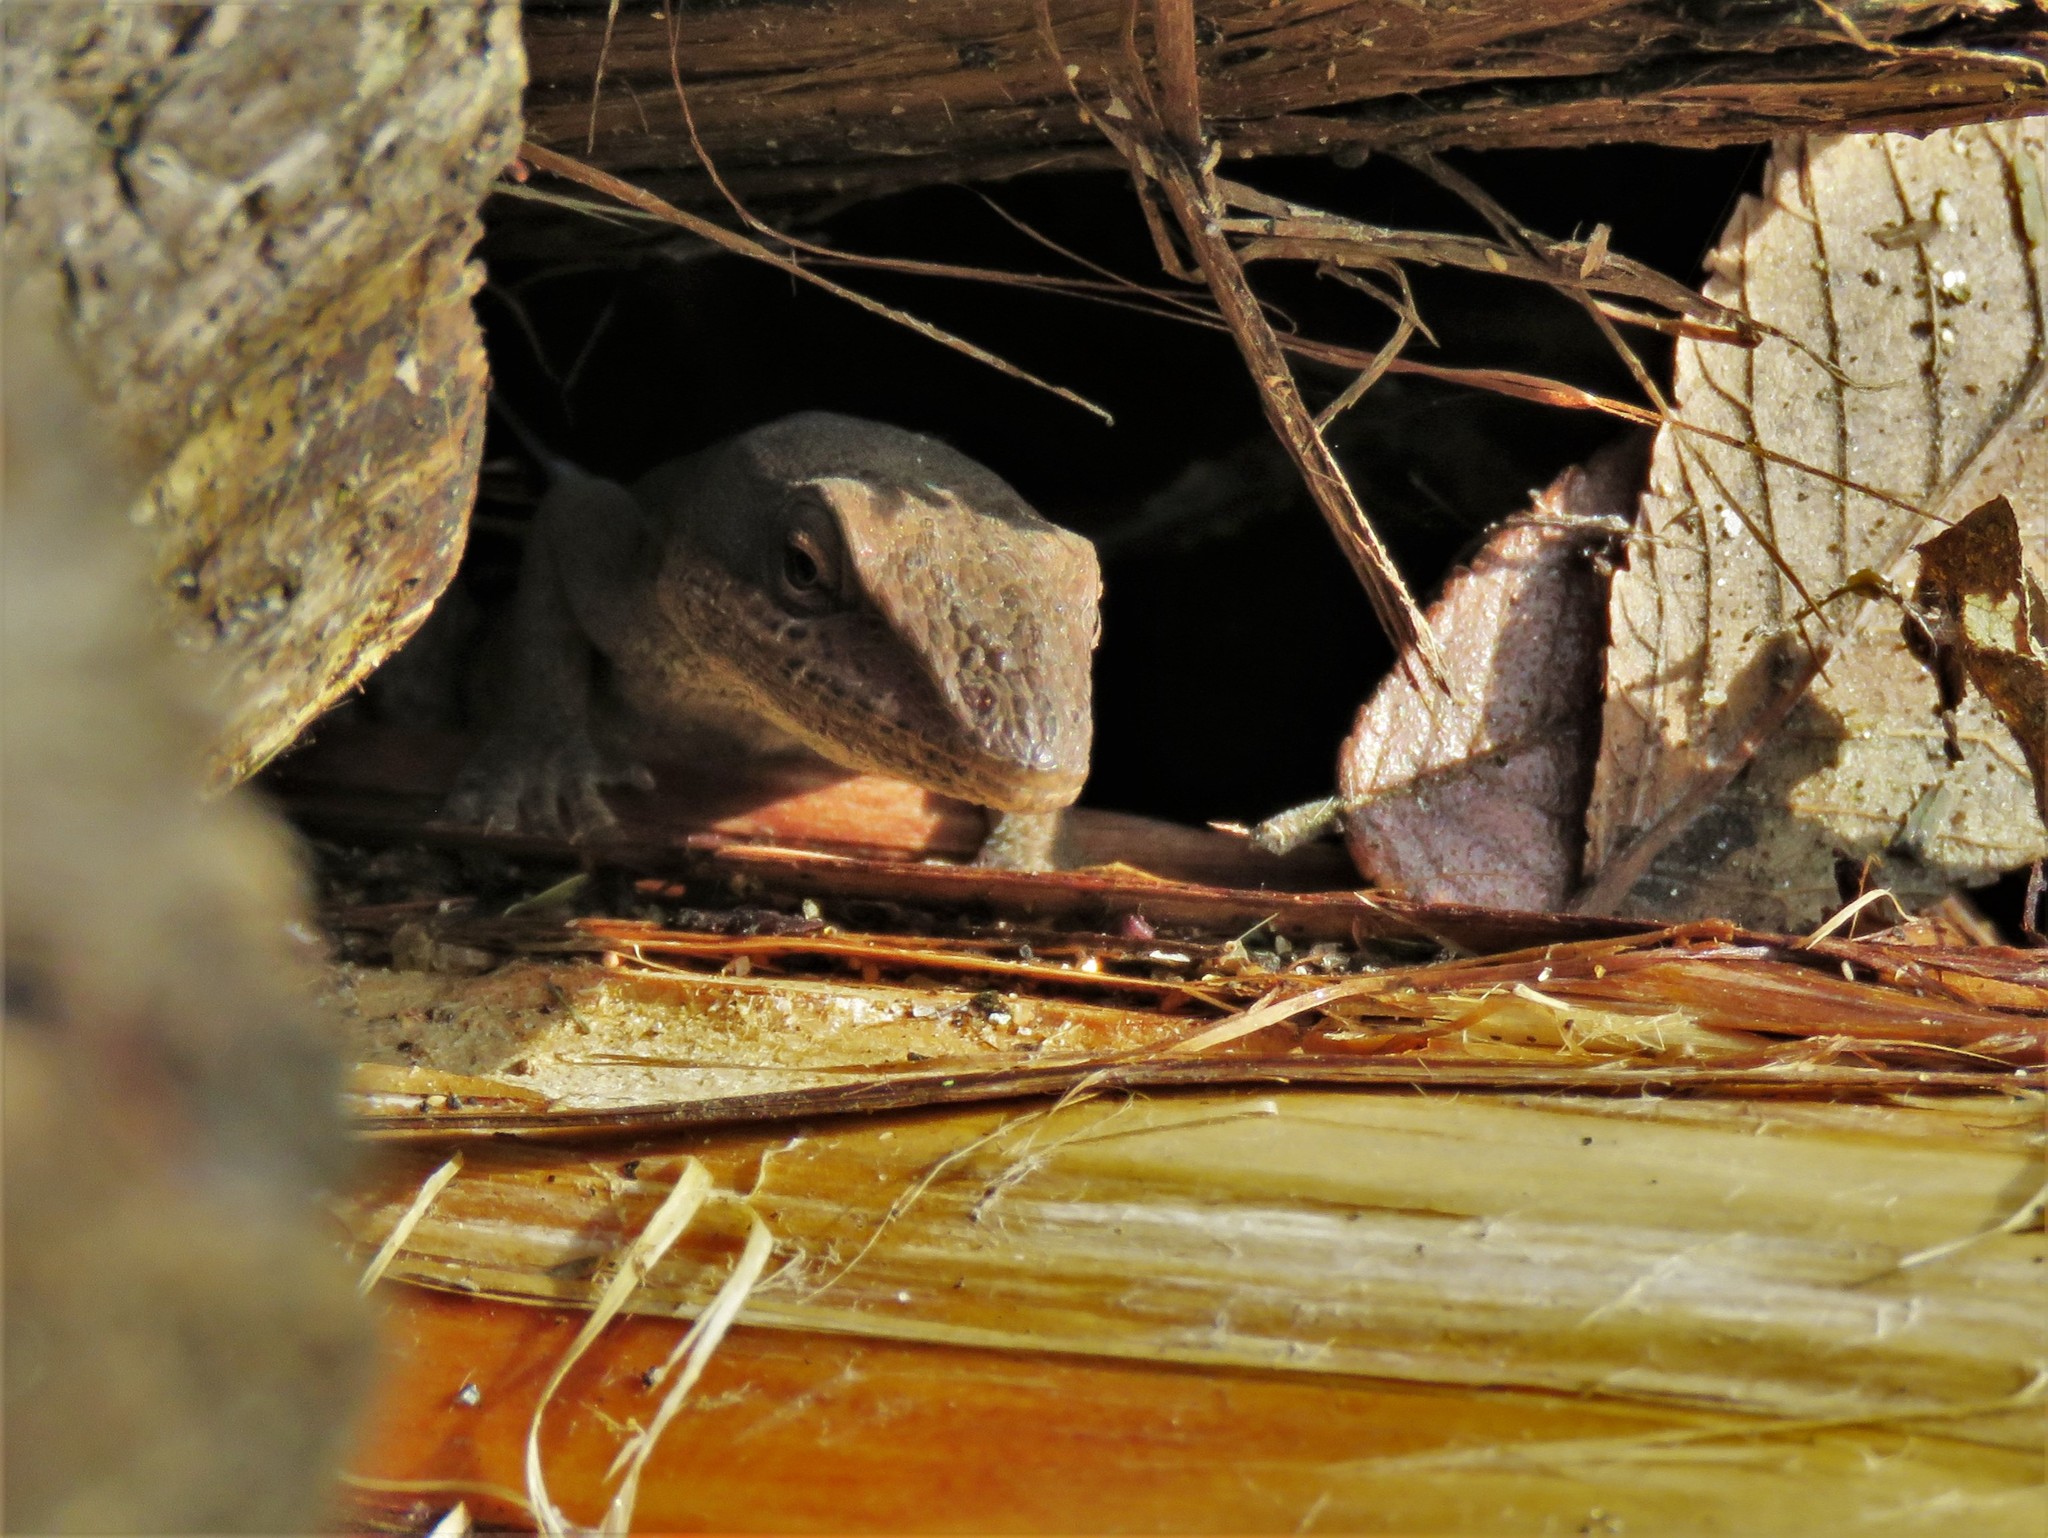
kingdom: Animalia
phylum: Chordata
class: Squamata
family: Dactyloidae
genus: Anolis
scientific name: Anolis carolinensis
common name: Green anole
